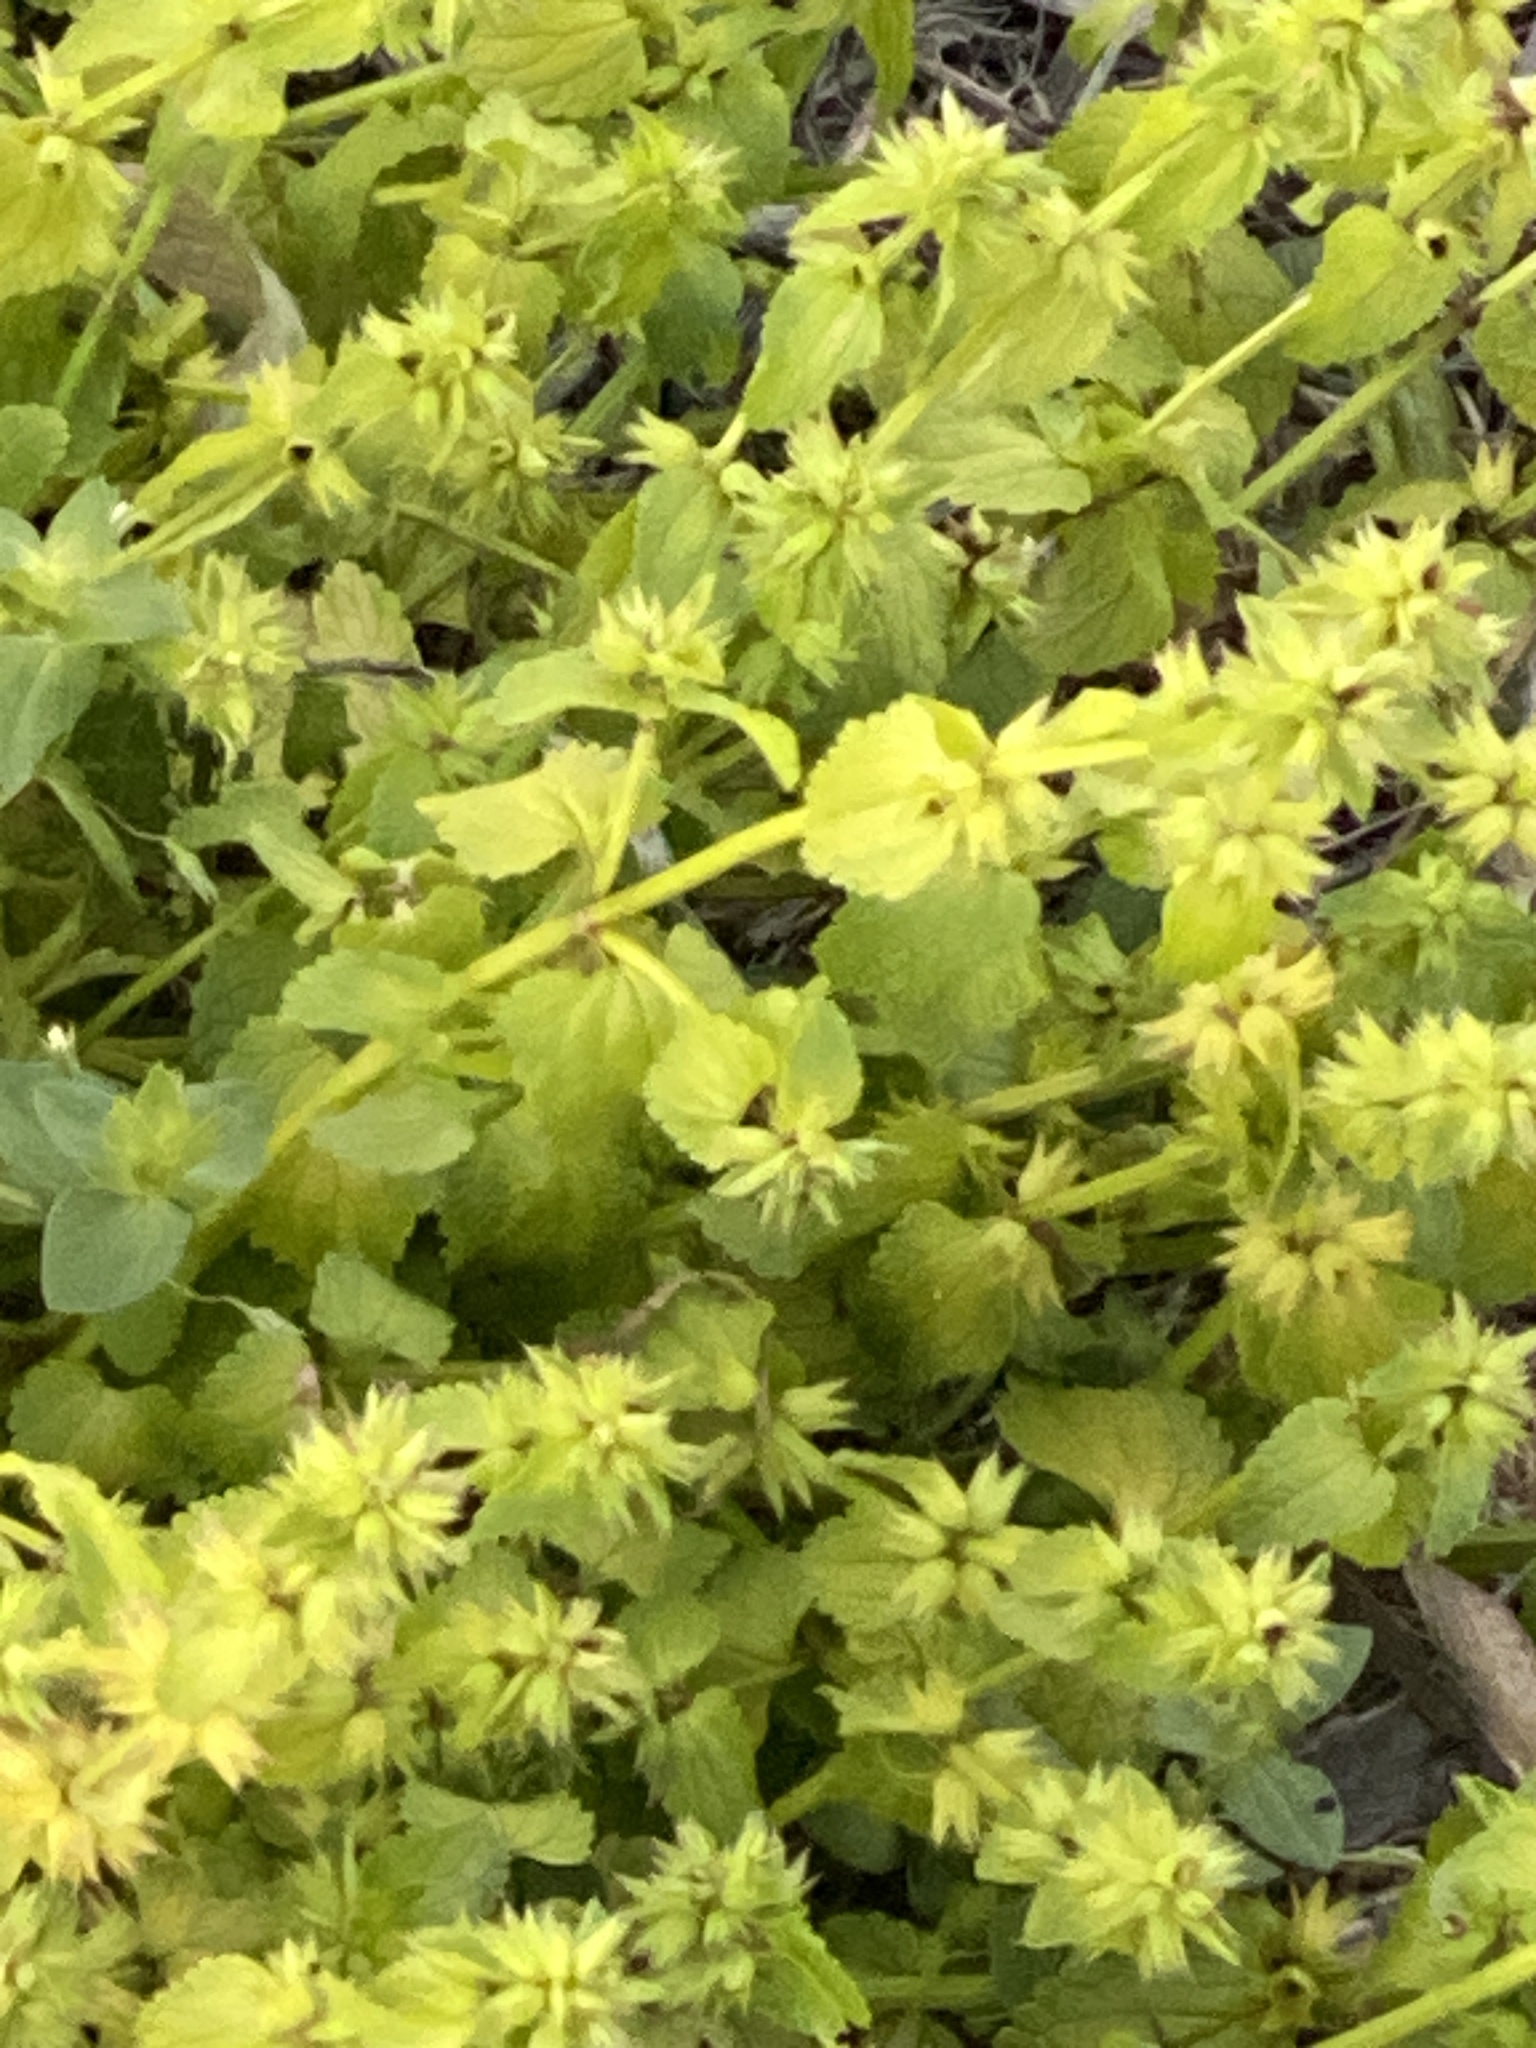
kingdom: Plantae
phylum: Tracheophyta
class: Magnoliopsida
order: Lamiales
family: Lamiaceae
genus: Stachys
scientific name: Stachys arvensis
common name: Field woundwort
